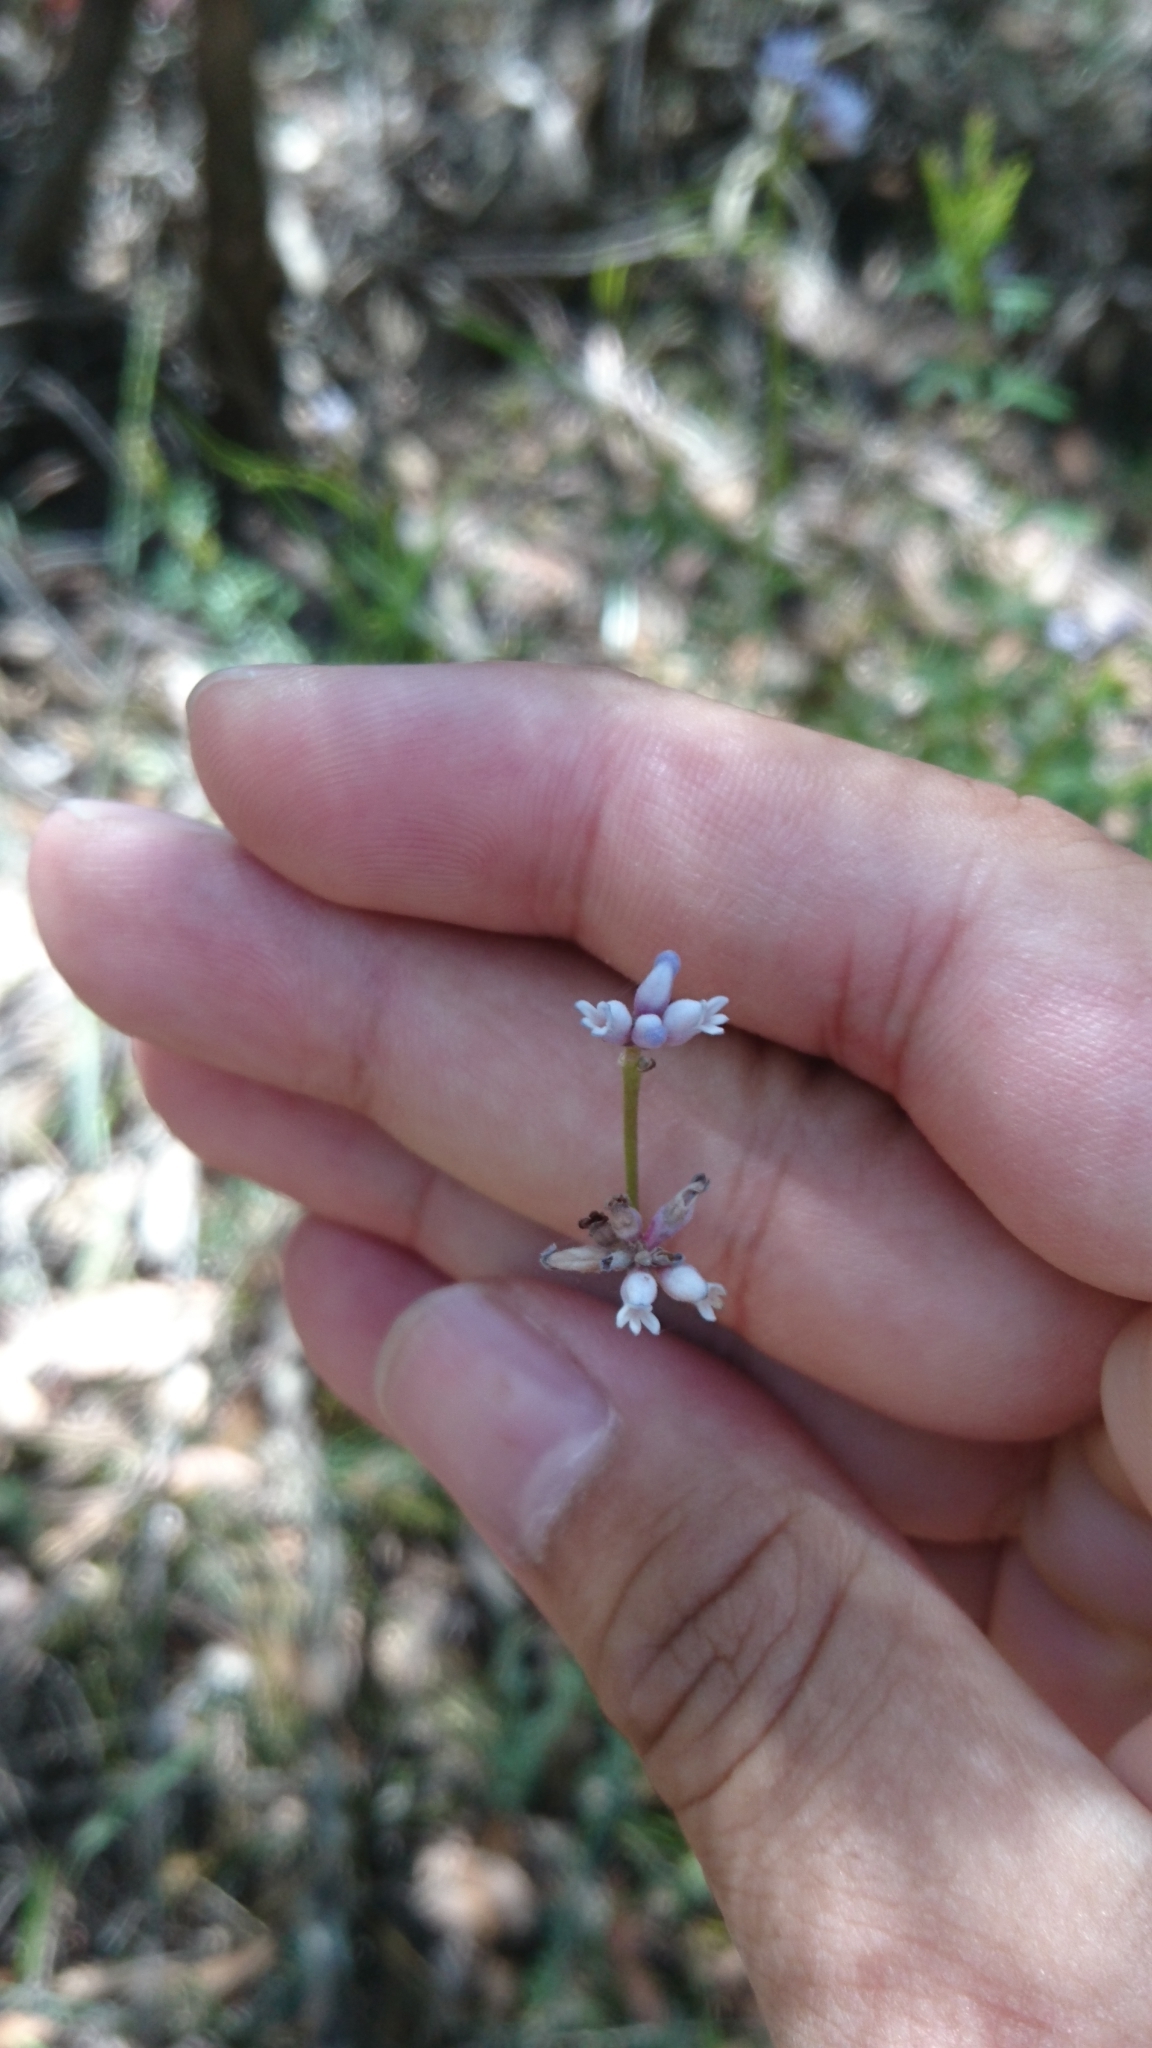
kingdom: Plantae
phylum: Tracheophyta
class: Magnoliopsida
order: Proteales
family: Proteaceae
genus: Conospermum
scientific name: Conospermum tenuifolium
